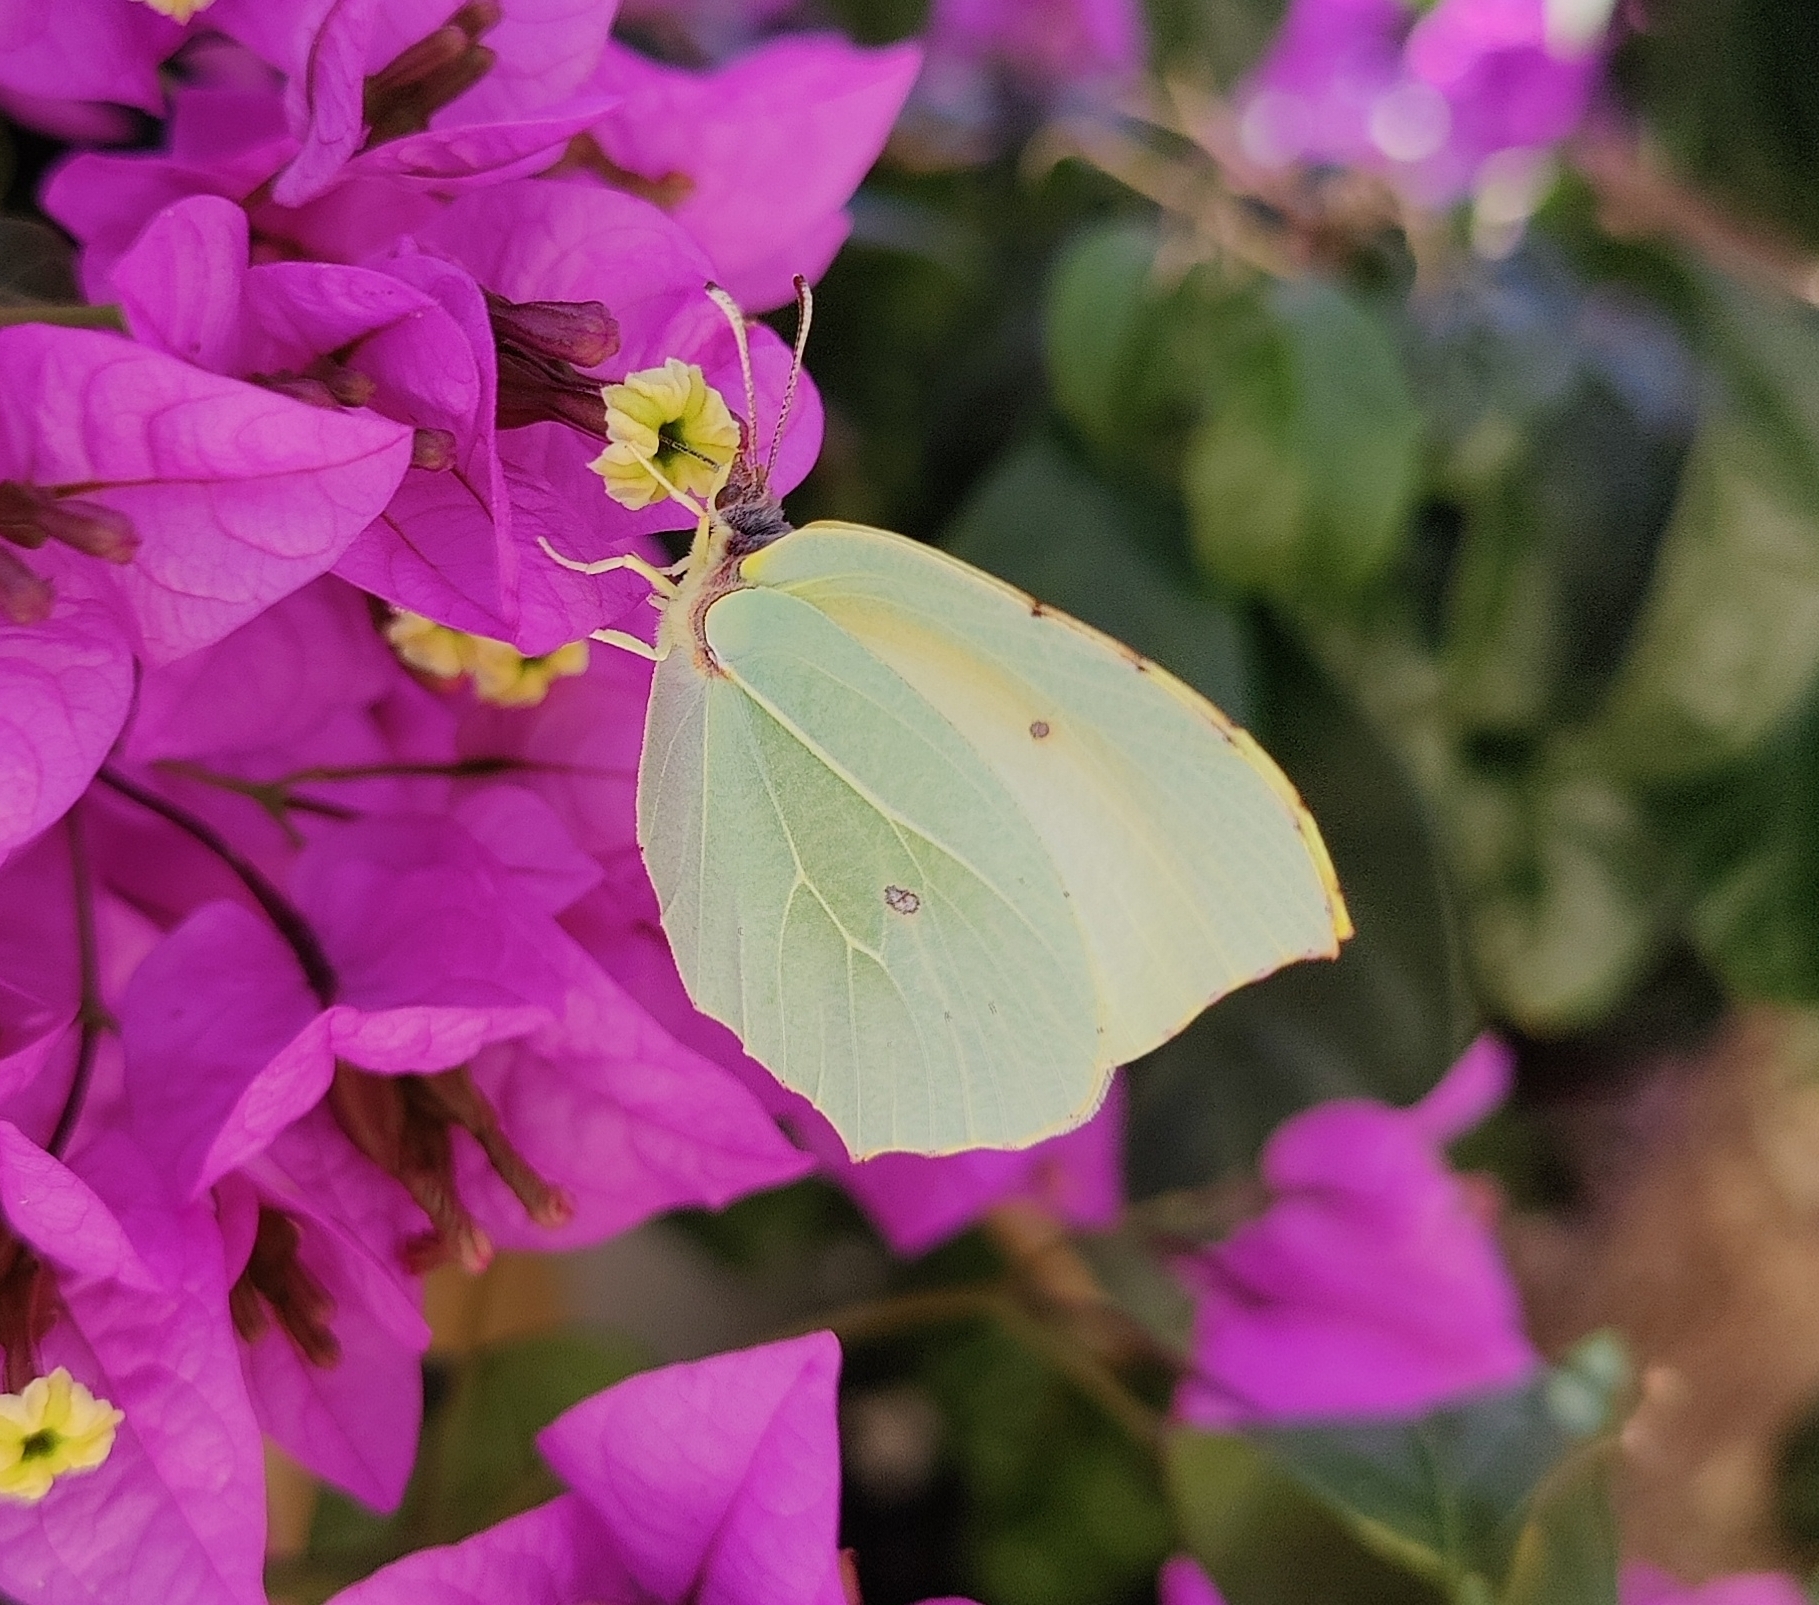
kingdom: Animalia
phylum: Arthropoda
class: Insecta
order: Lepidoptera
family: Pieridae
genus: Gonepteryx
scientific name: Gonepteryx cleopatra
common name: Cleopatra
